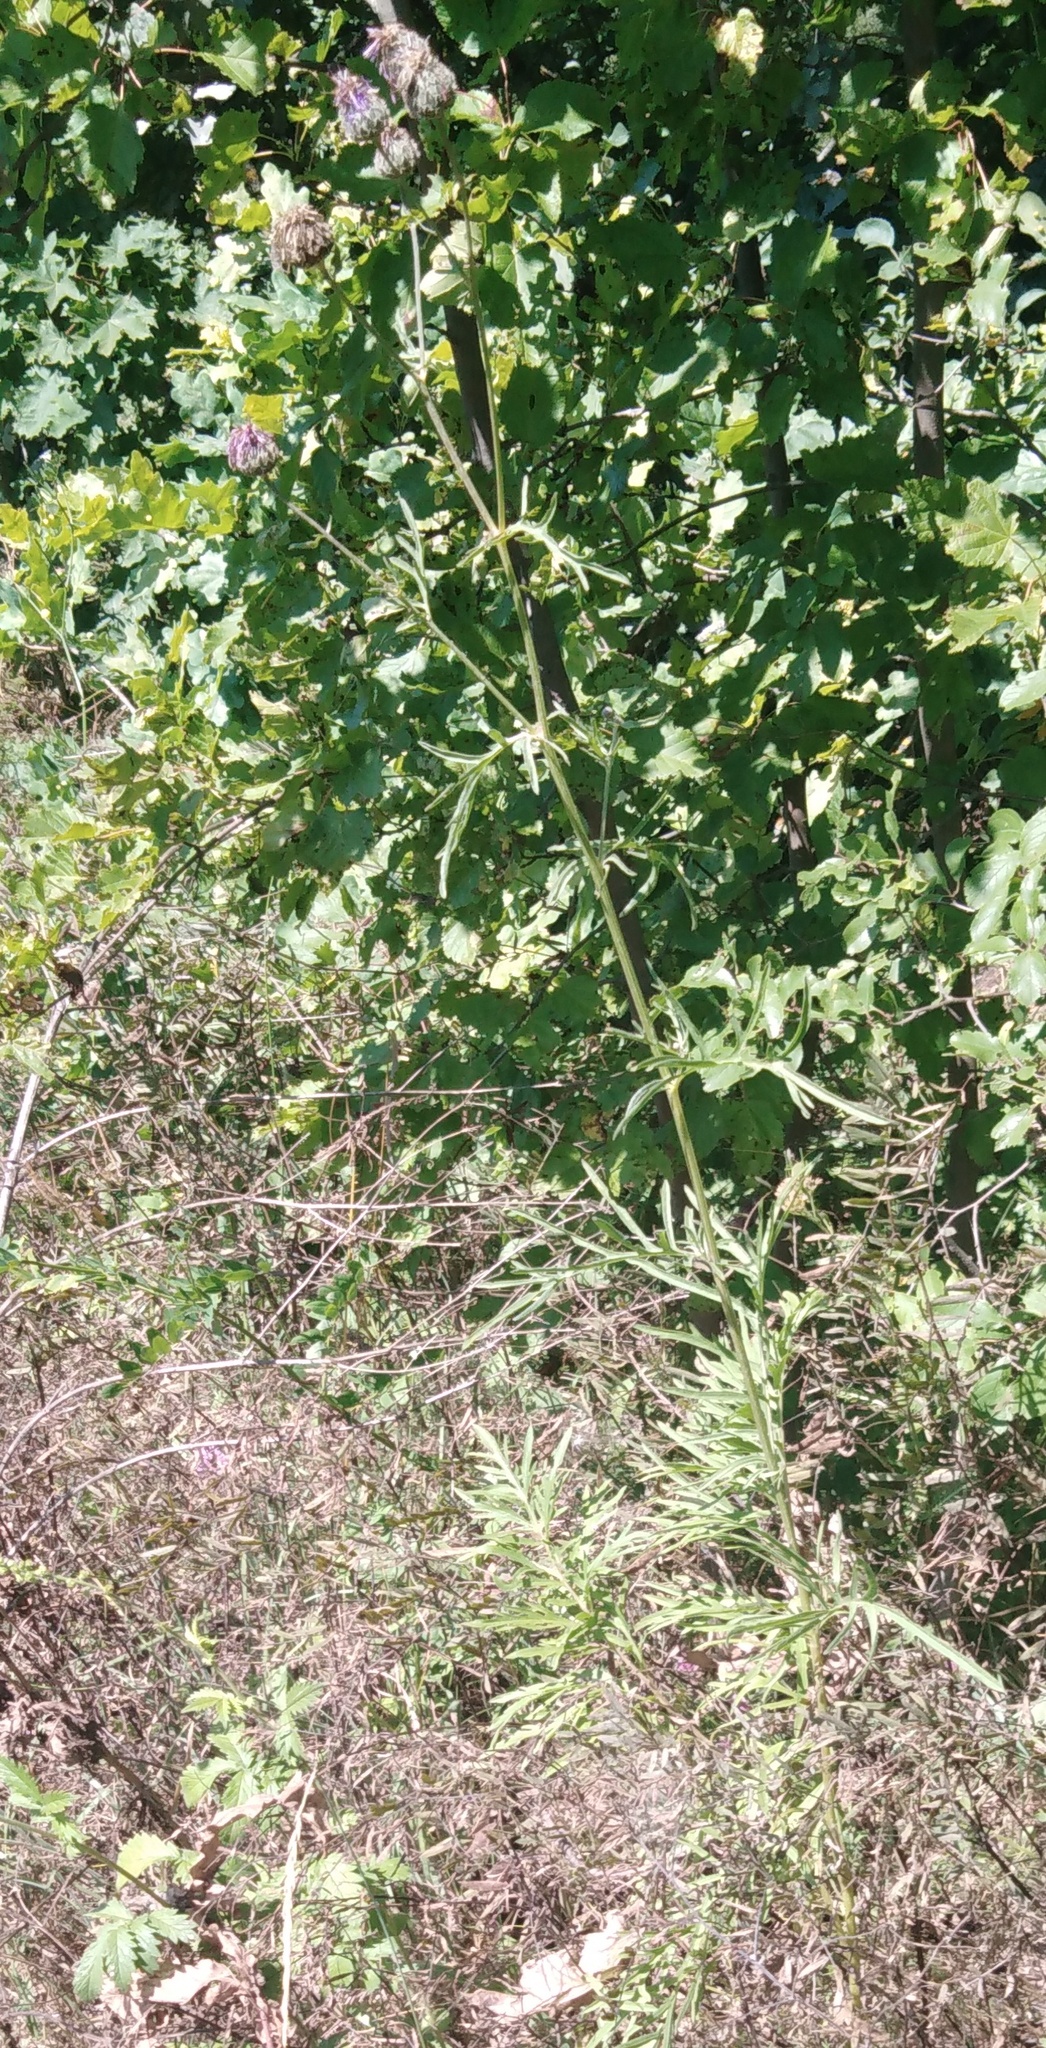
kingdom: Plantae
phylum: Tracheophyta
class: Magnoliopsida
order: Asterales
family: Asteraceae
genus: Centaurea
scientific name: Centaurea scabiosa
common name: Greater knapweed
